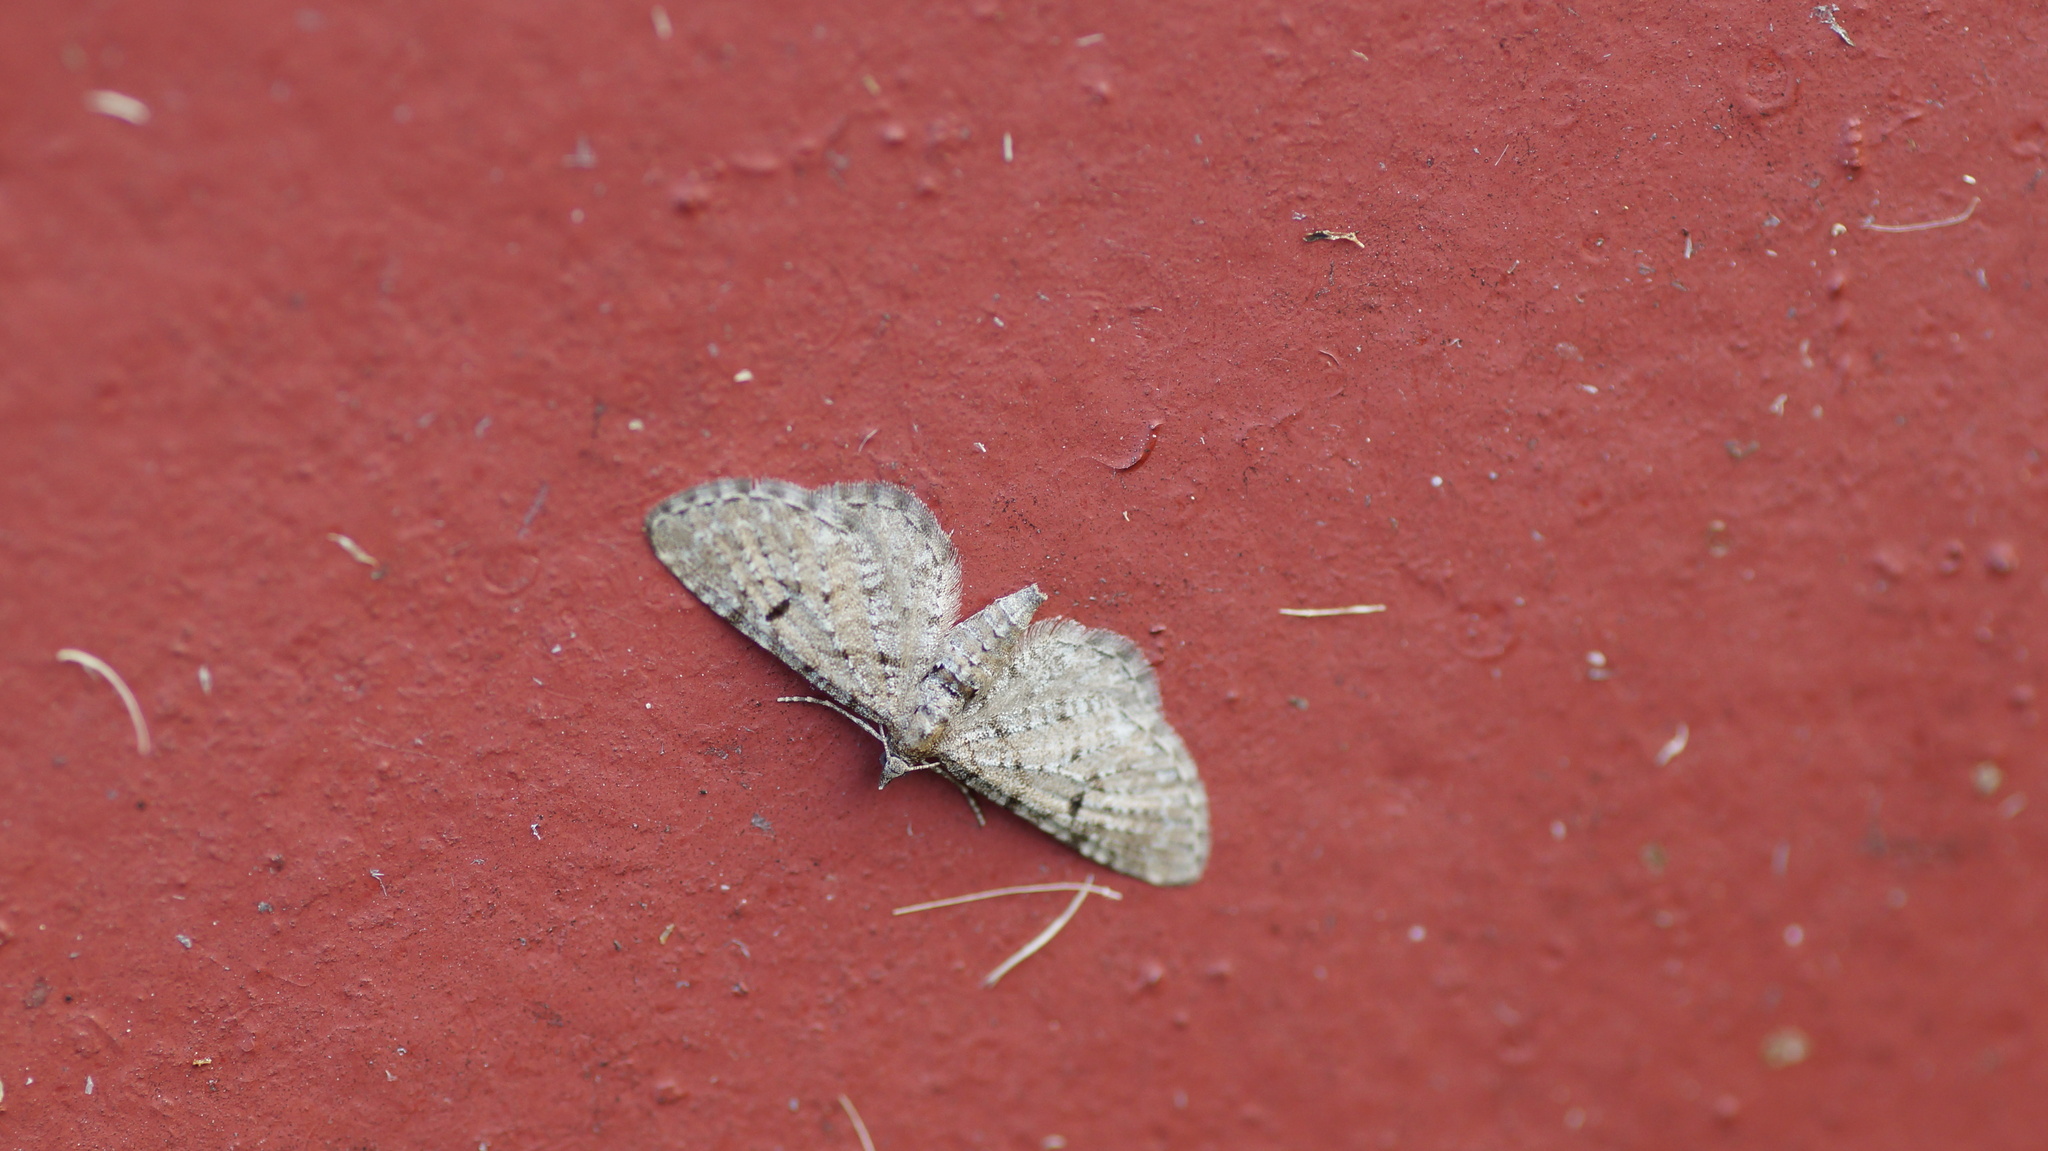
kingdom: Animalia
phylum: Arthropoda
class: Insecta
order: Lepidoptera
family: Geometridae
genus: Eupithecia
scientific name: Eupithecia intricata
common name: Freyers pug
